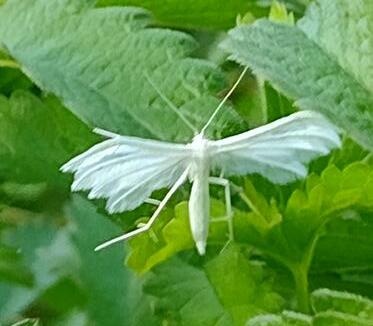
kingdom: Animalia
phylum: Arthropoda
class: Insecta
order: Lepidoptera
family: Pterophoridae
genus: Pterophorus
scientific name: Pterophorus pentadactyla
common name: White plume moth
